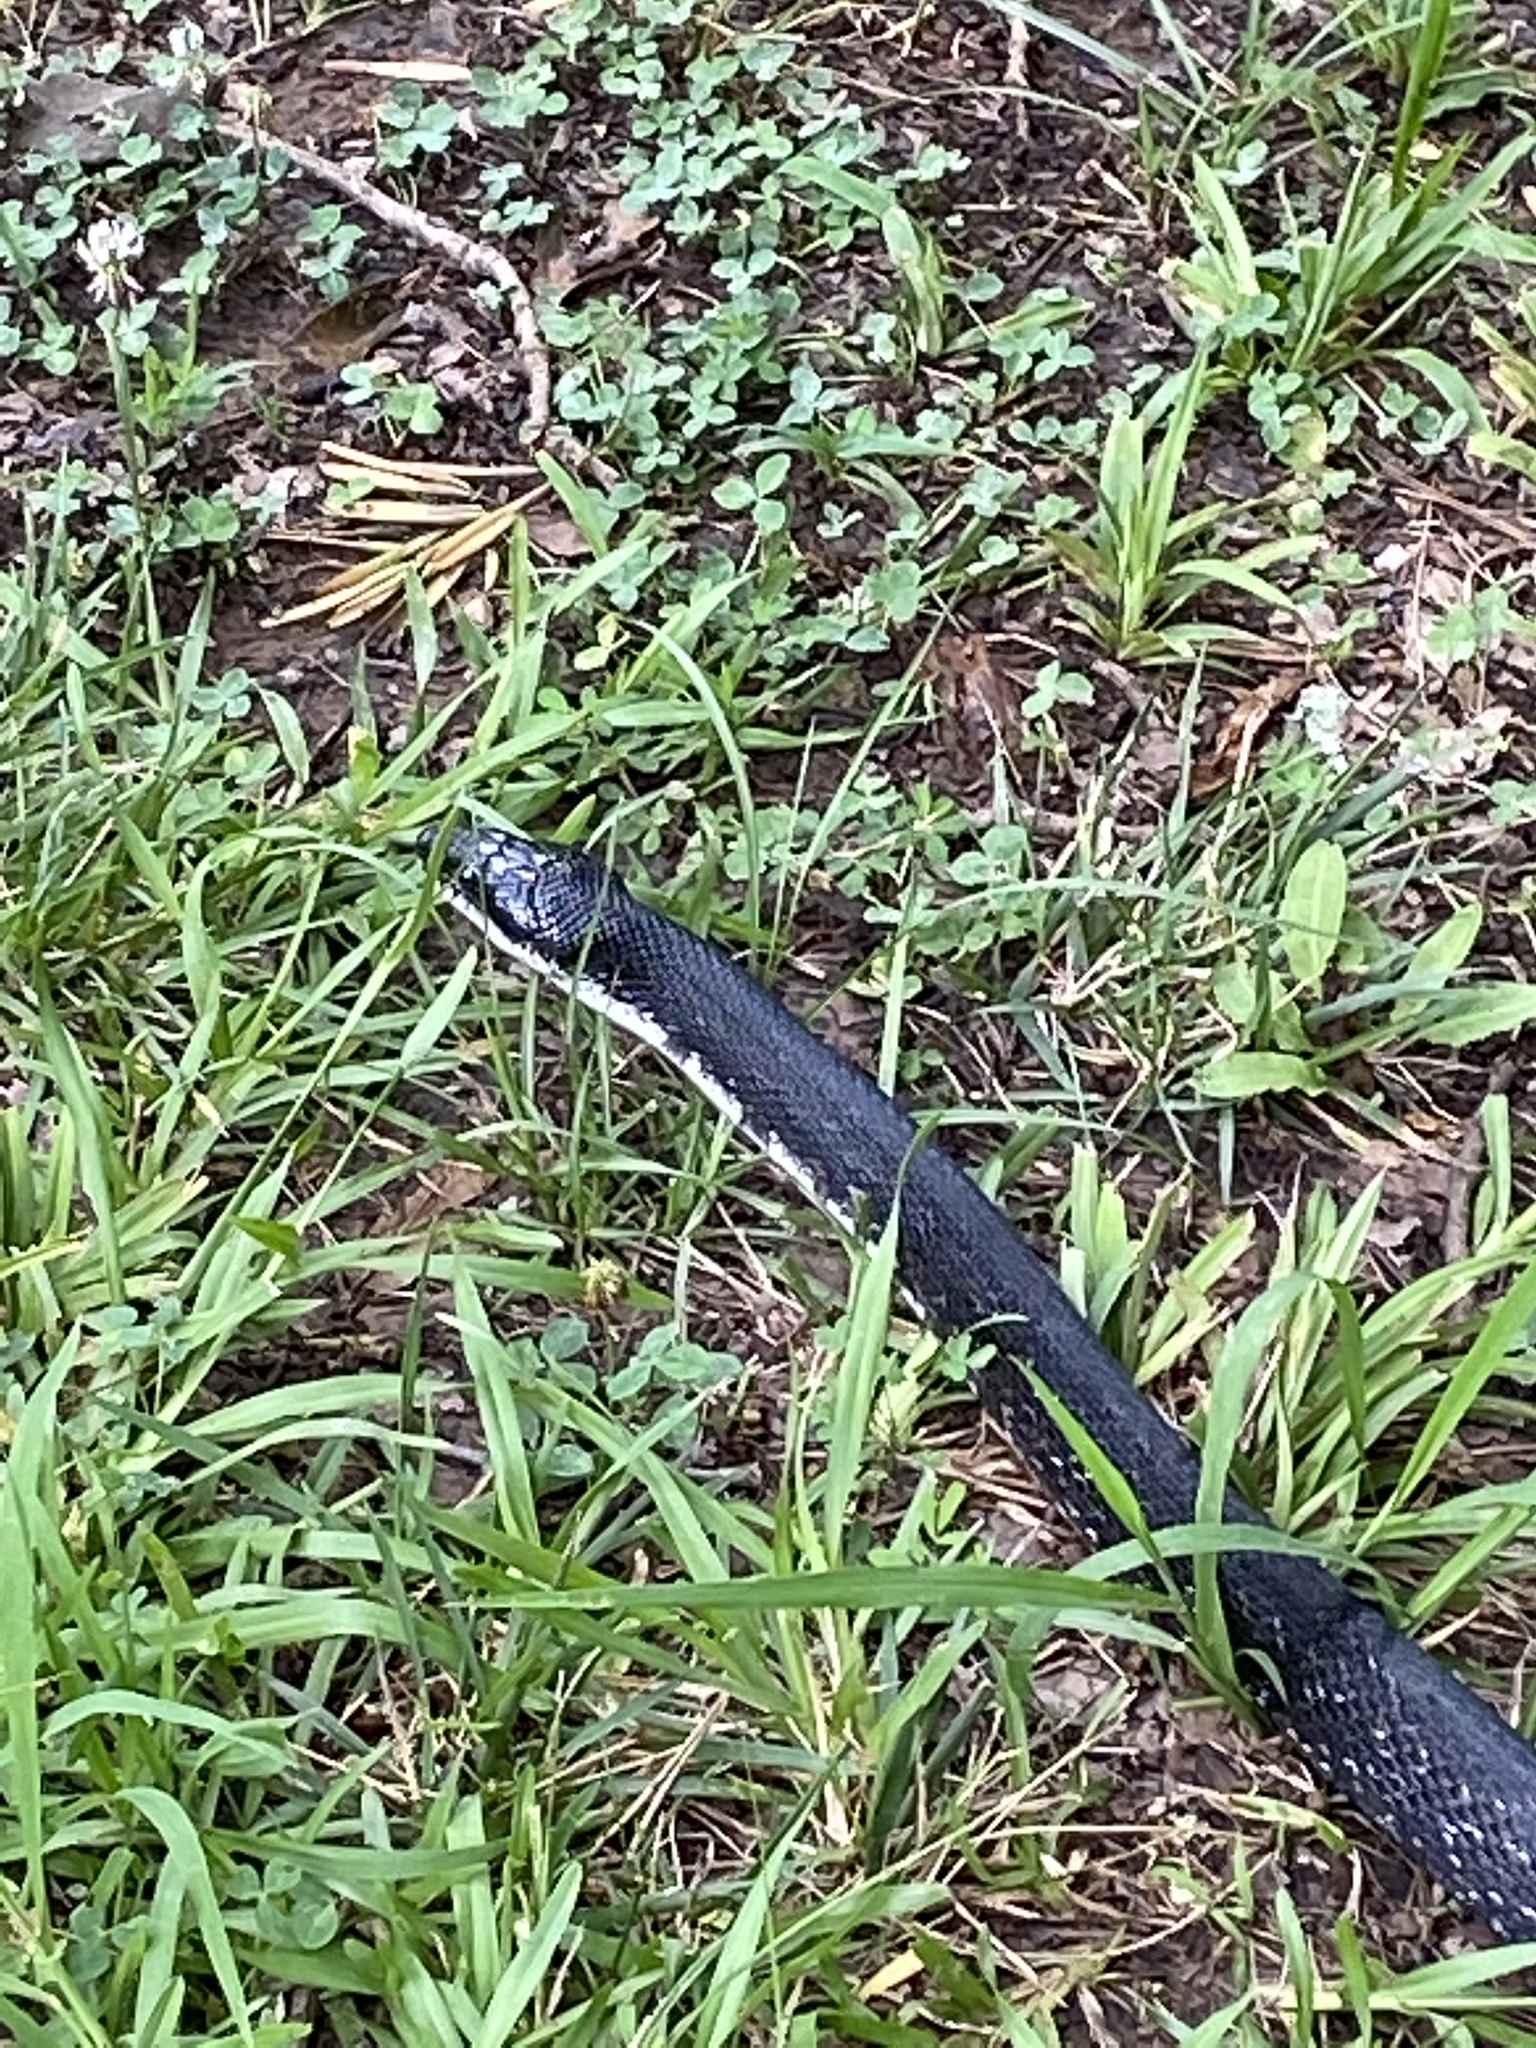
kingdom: Animalia
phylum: Chordata
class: Squamata
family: Colubridae
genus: Pantherophis
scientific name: Pantherophis alleghaniensis
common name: Eastern rat snake
